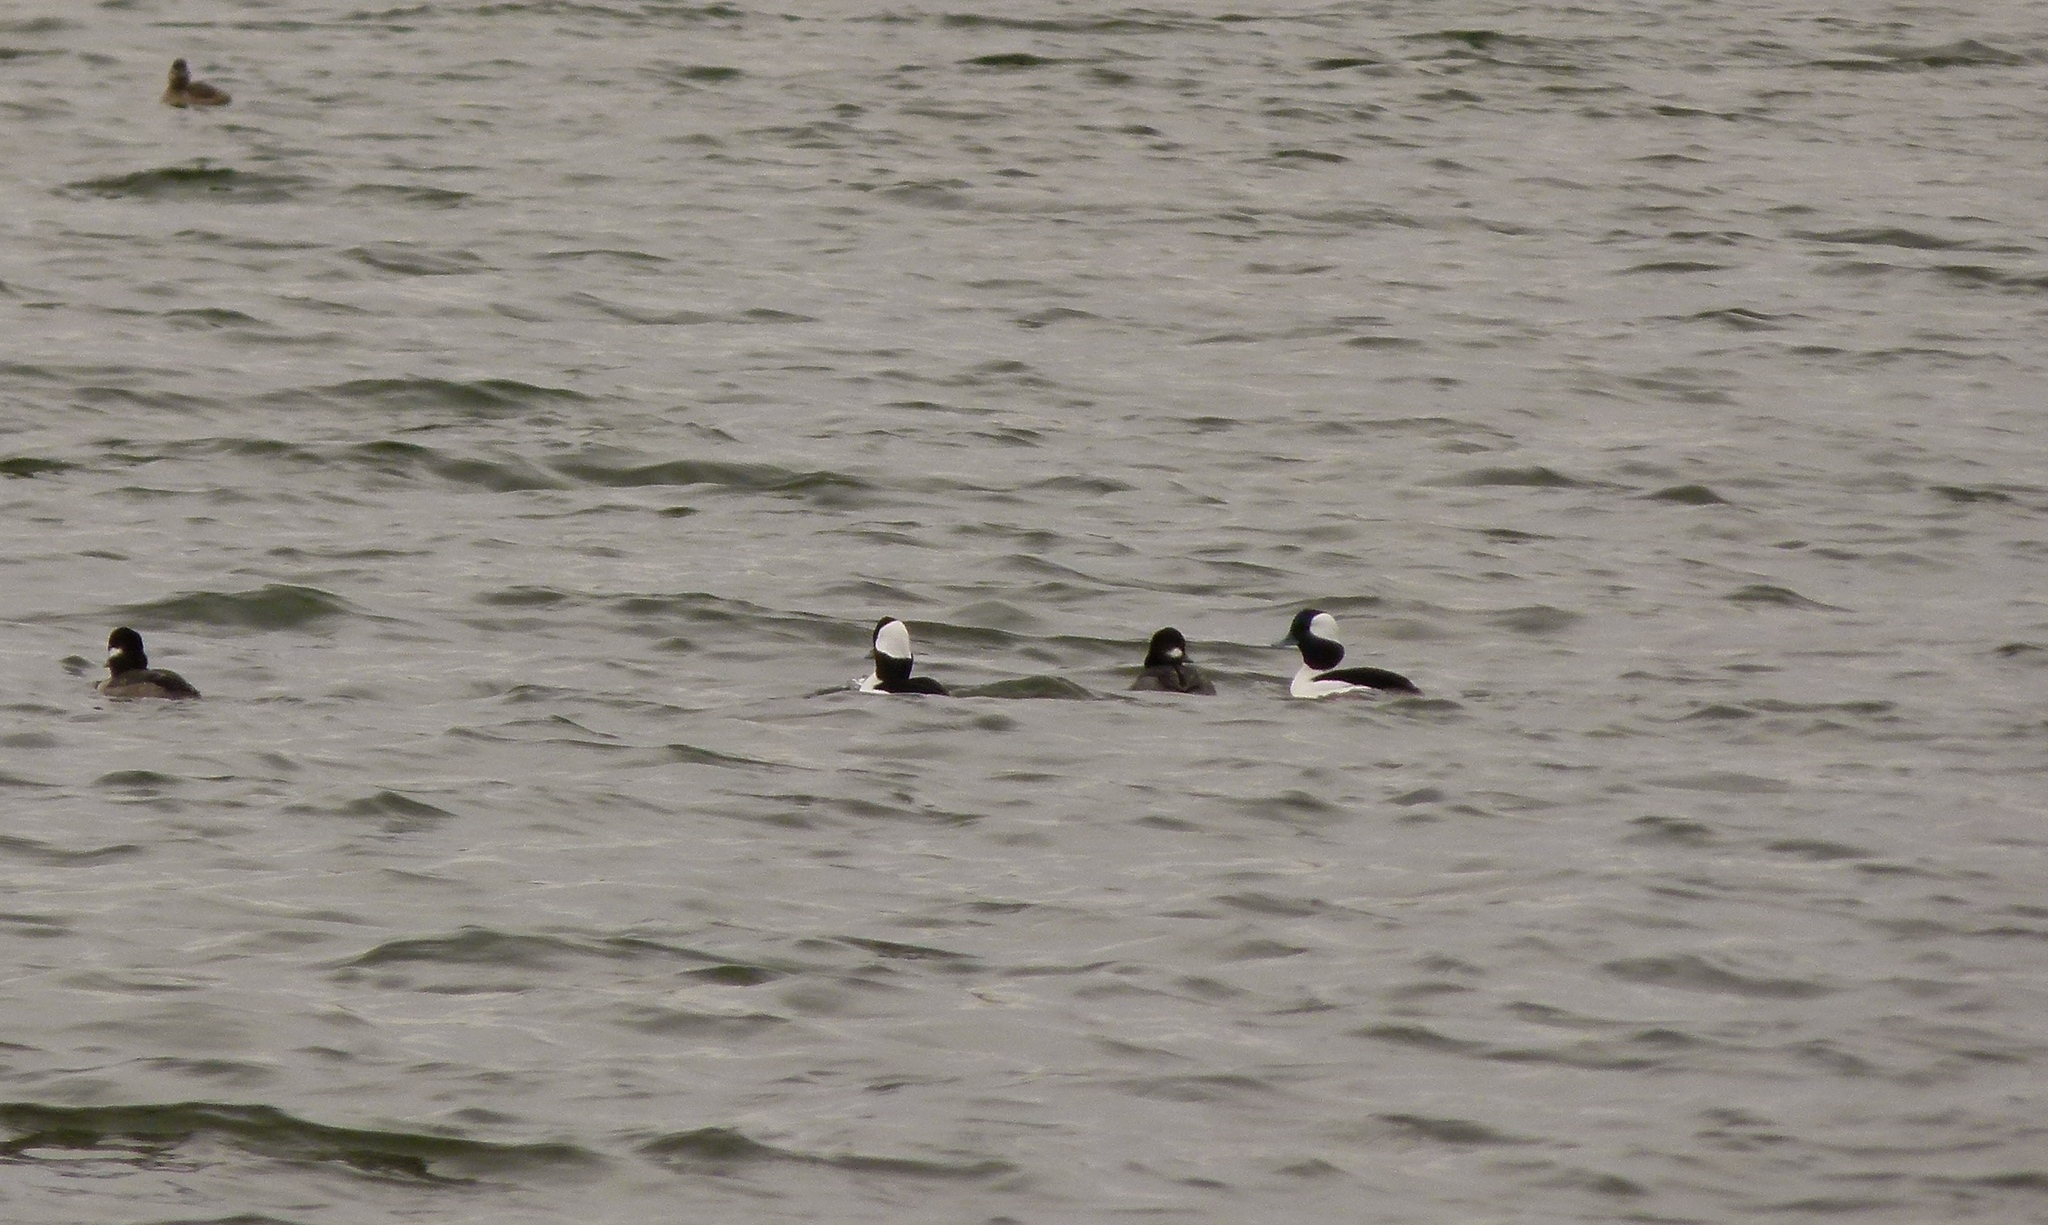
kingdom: Animalia
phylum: Chordata
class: Aves
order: Anseriformes
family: Anatidae
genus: Bucephala
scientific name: Bucephala albeola
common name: Bufflehead
